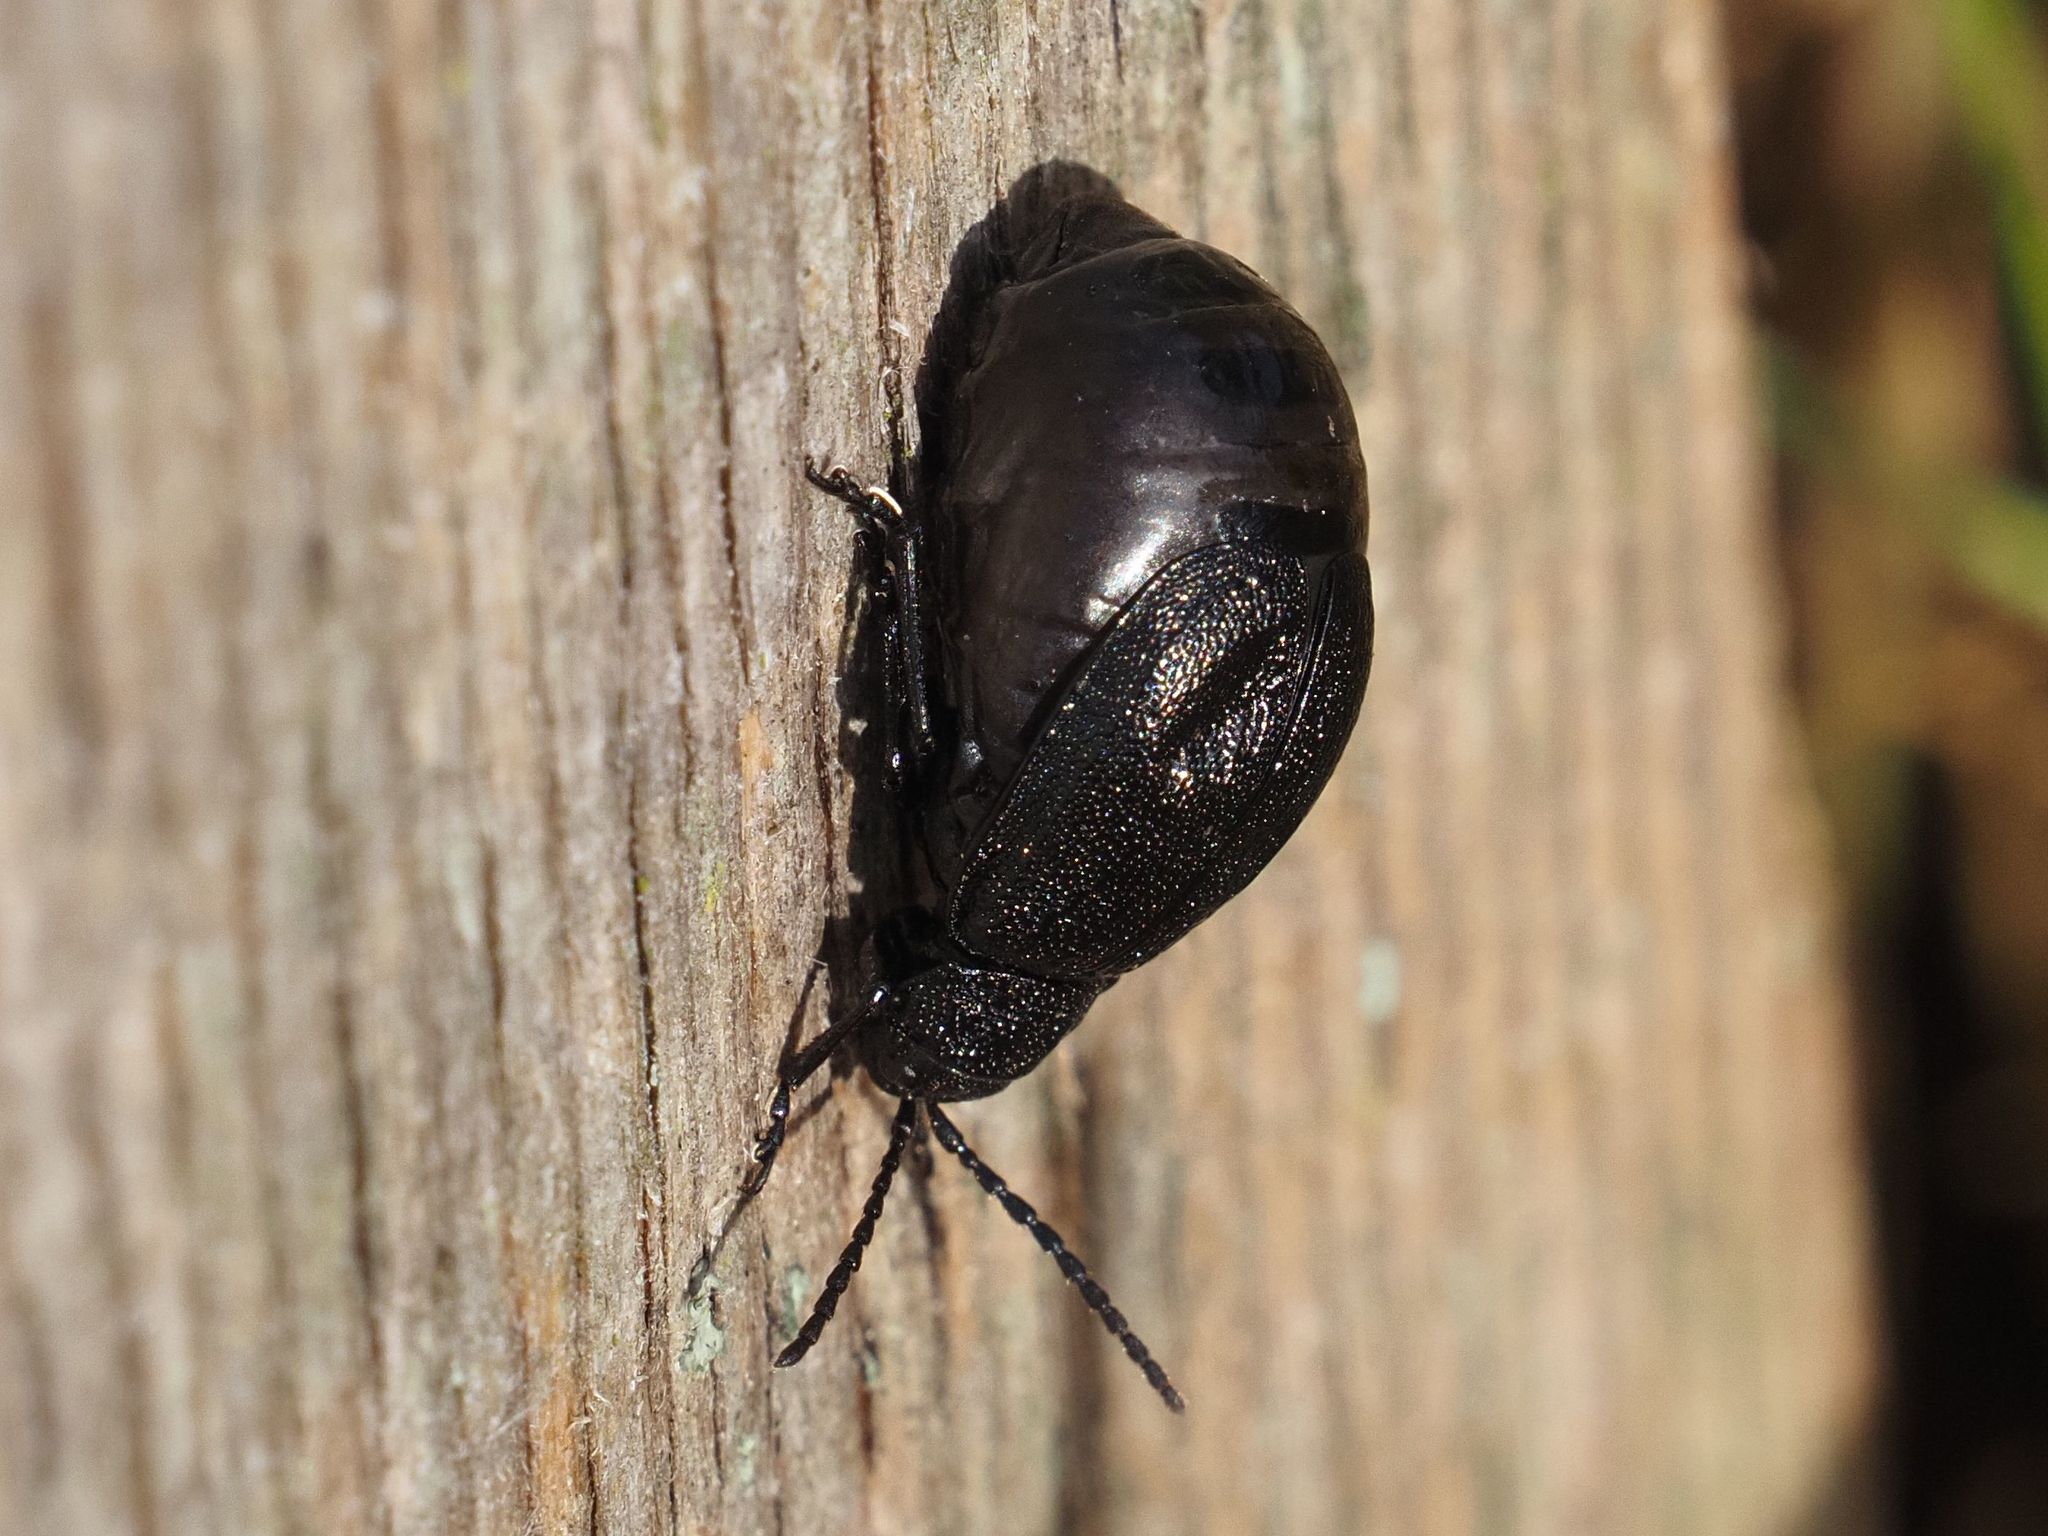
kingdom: Animalia
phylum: Arthropoda
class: Insecta
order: Coleoptera
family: Chrysomelidae
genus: Galeruca
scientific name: Galeruca tanaceti
